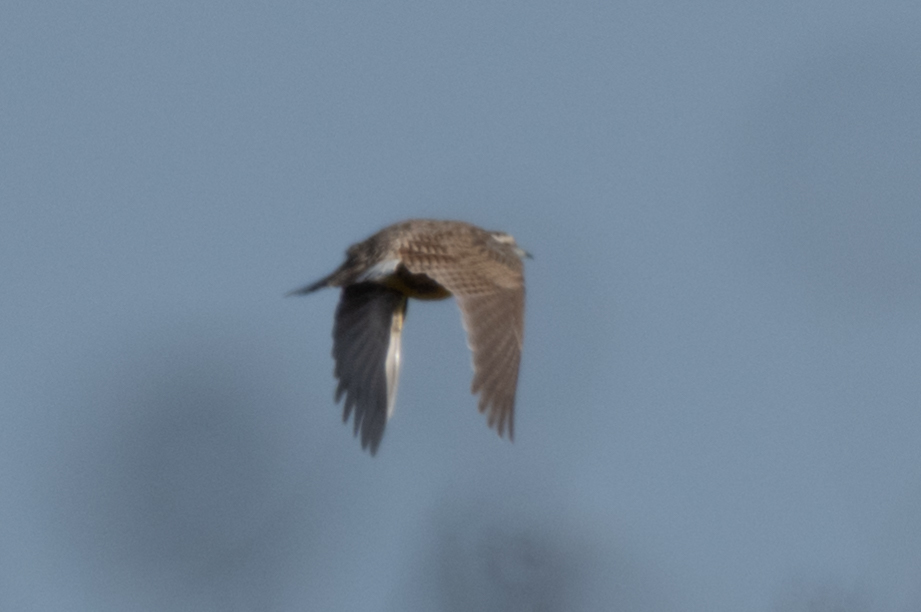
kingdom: Animalia
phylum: Chordata
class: Aves
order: Passeriformes
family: Icteridae
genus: Sturnella
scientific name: Sturnella neglecta
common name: Western meadowlark
